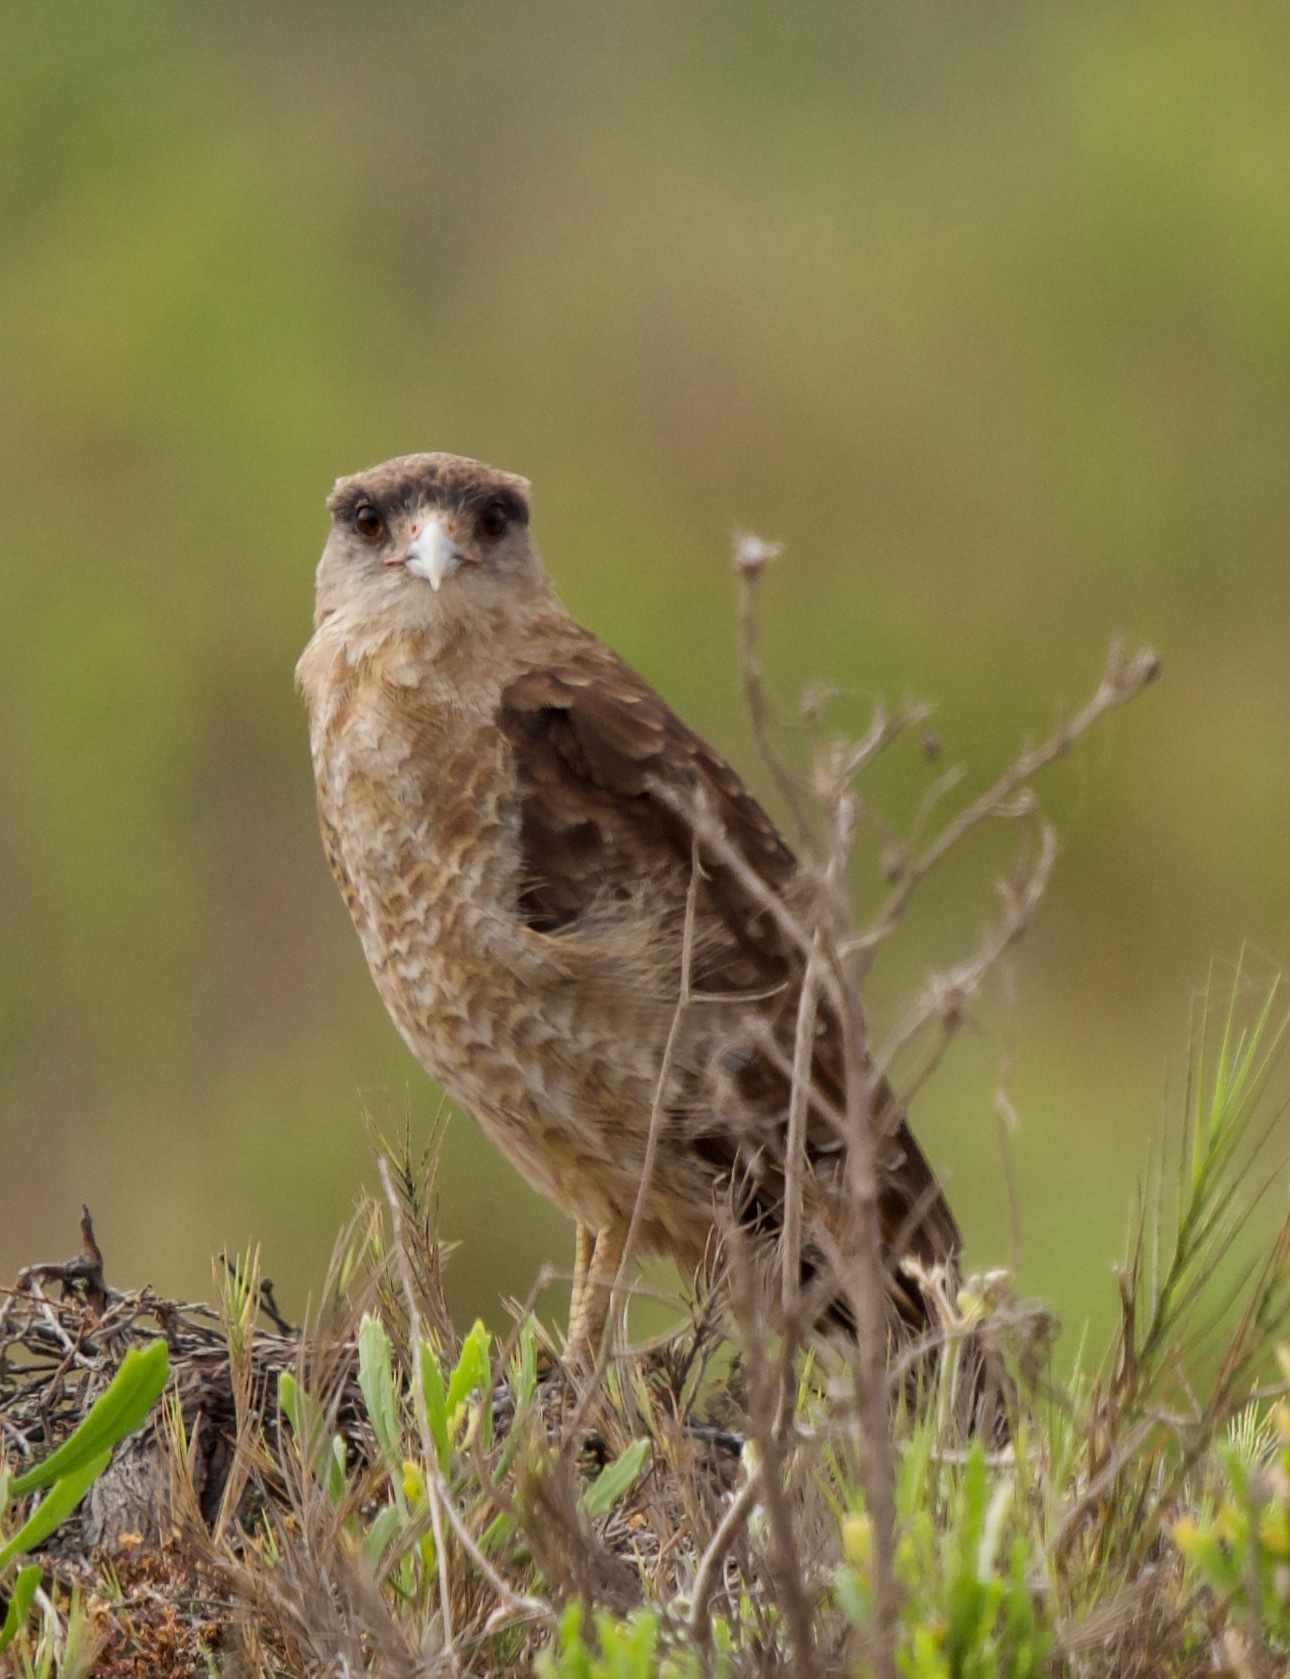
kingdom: Animalia
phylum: Chordata
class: Aves
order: Falconiformes
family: Falconidae
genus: Daptrius
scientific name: Daptrius
